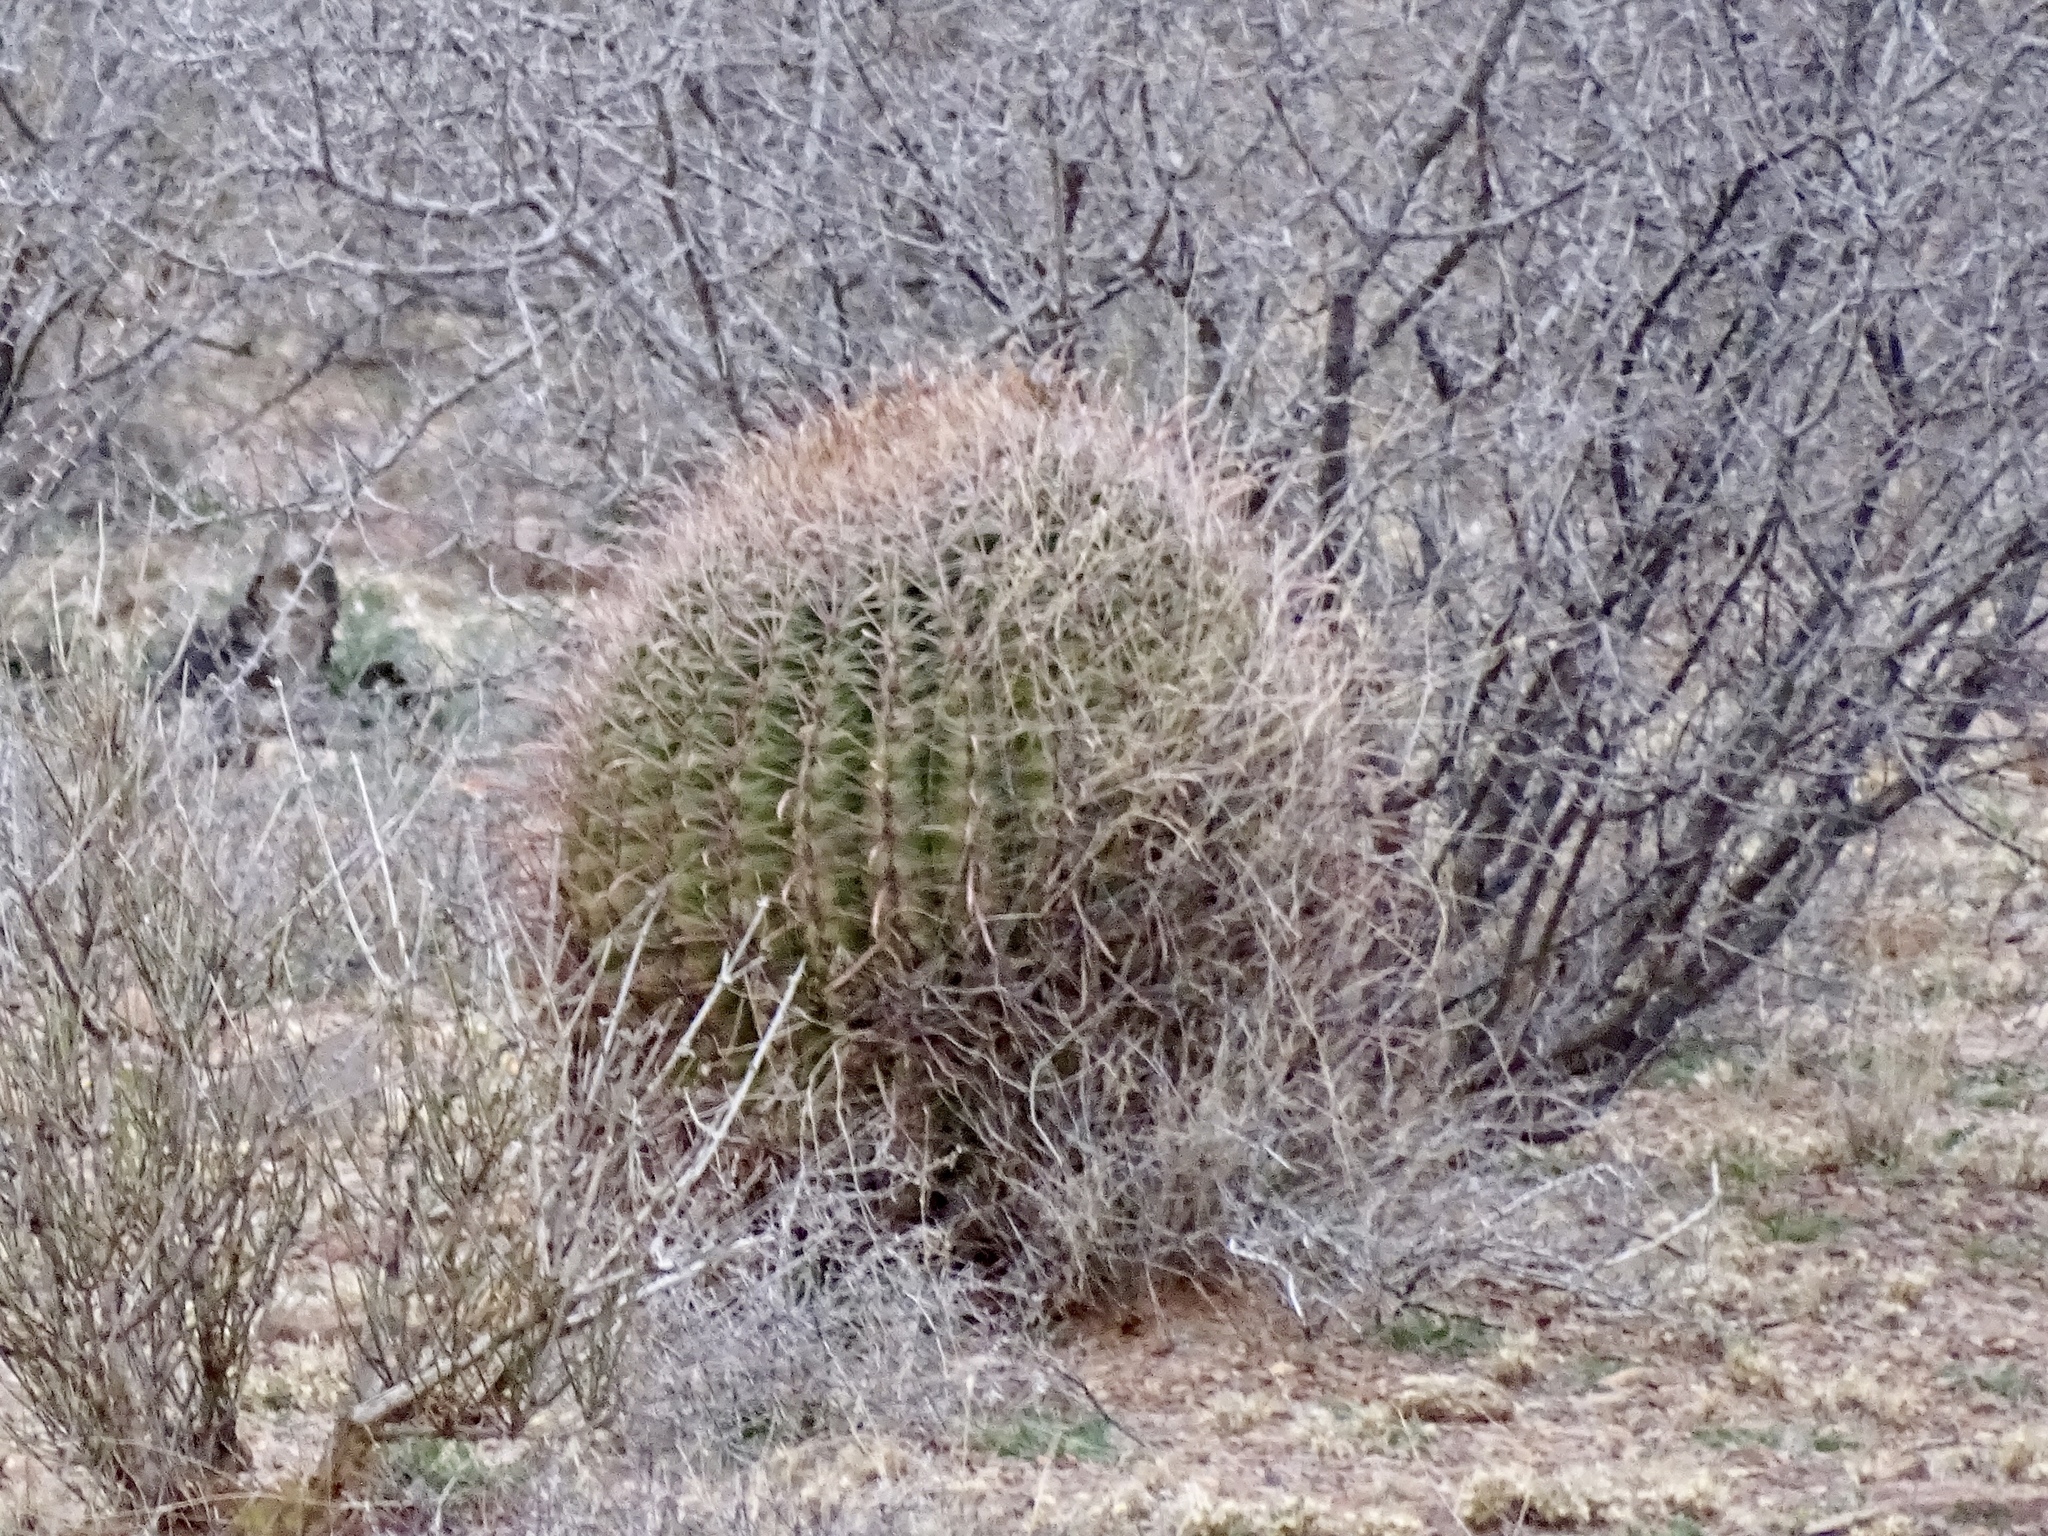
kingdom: Plantae
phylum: Tracheophyta
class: Magnoliopsida
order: Caryophyllales
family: Cactaceae
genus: Ferocactus
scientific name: Ferocactus wislizeni
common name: Candy barrel cactus
